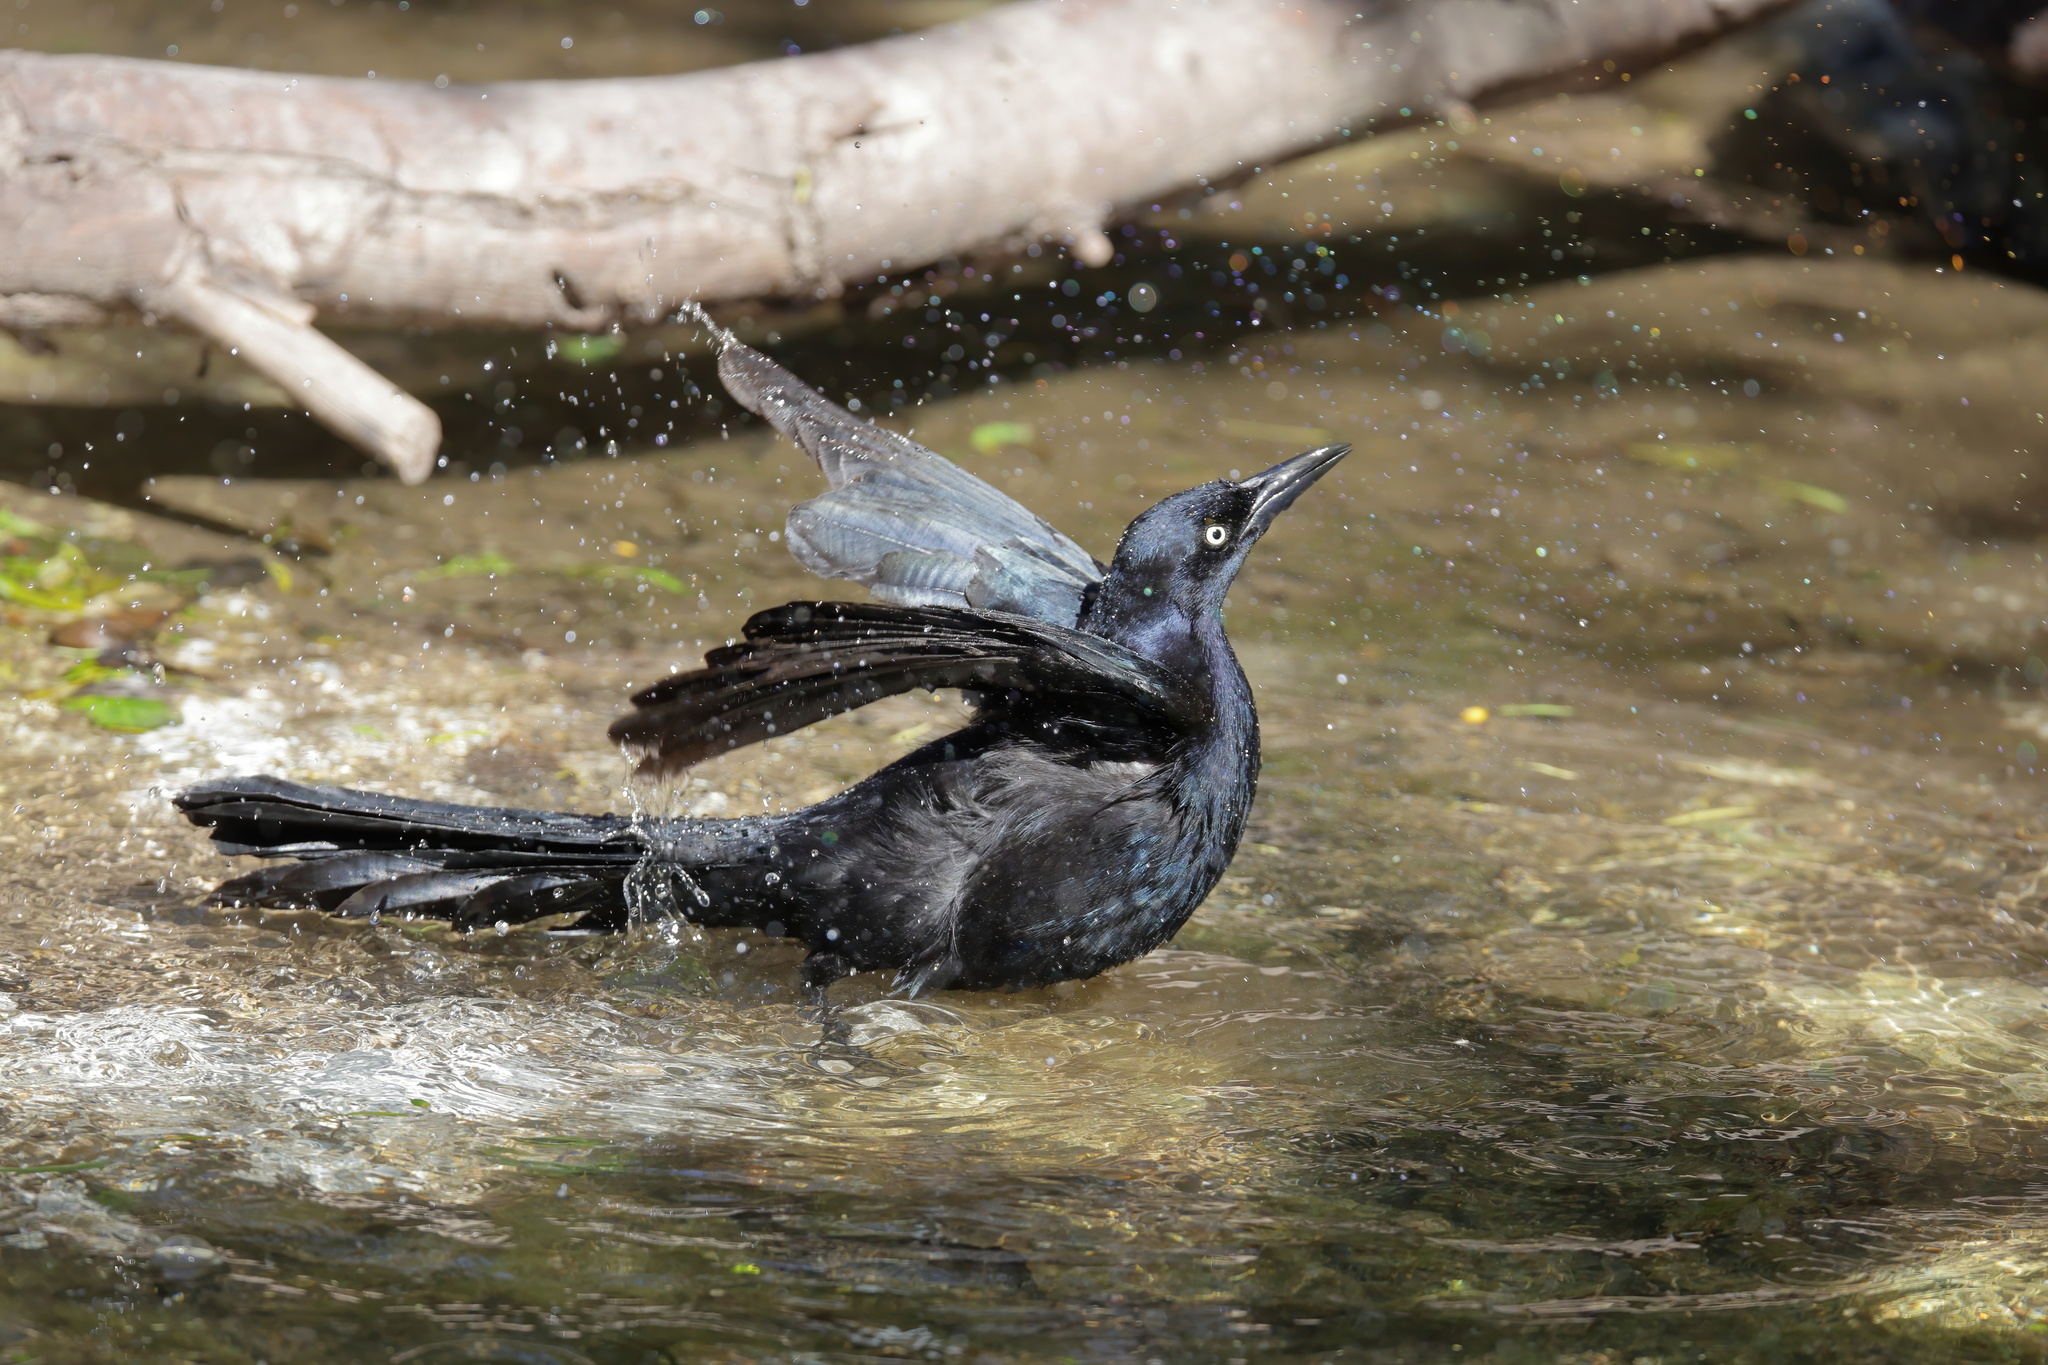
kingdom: Animalia
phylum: Chordata
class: Aves
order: Passeriformes
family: Icteridae
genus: Quiscalus
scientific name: Quiscalus mexicanus
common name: Great-tailed grackle
